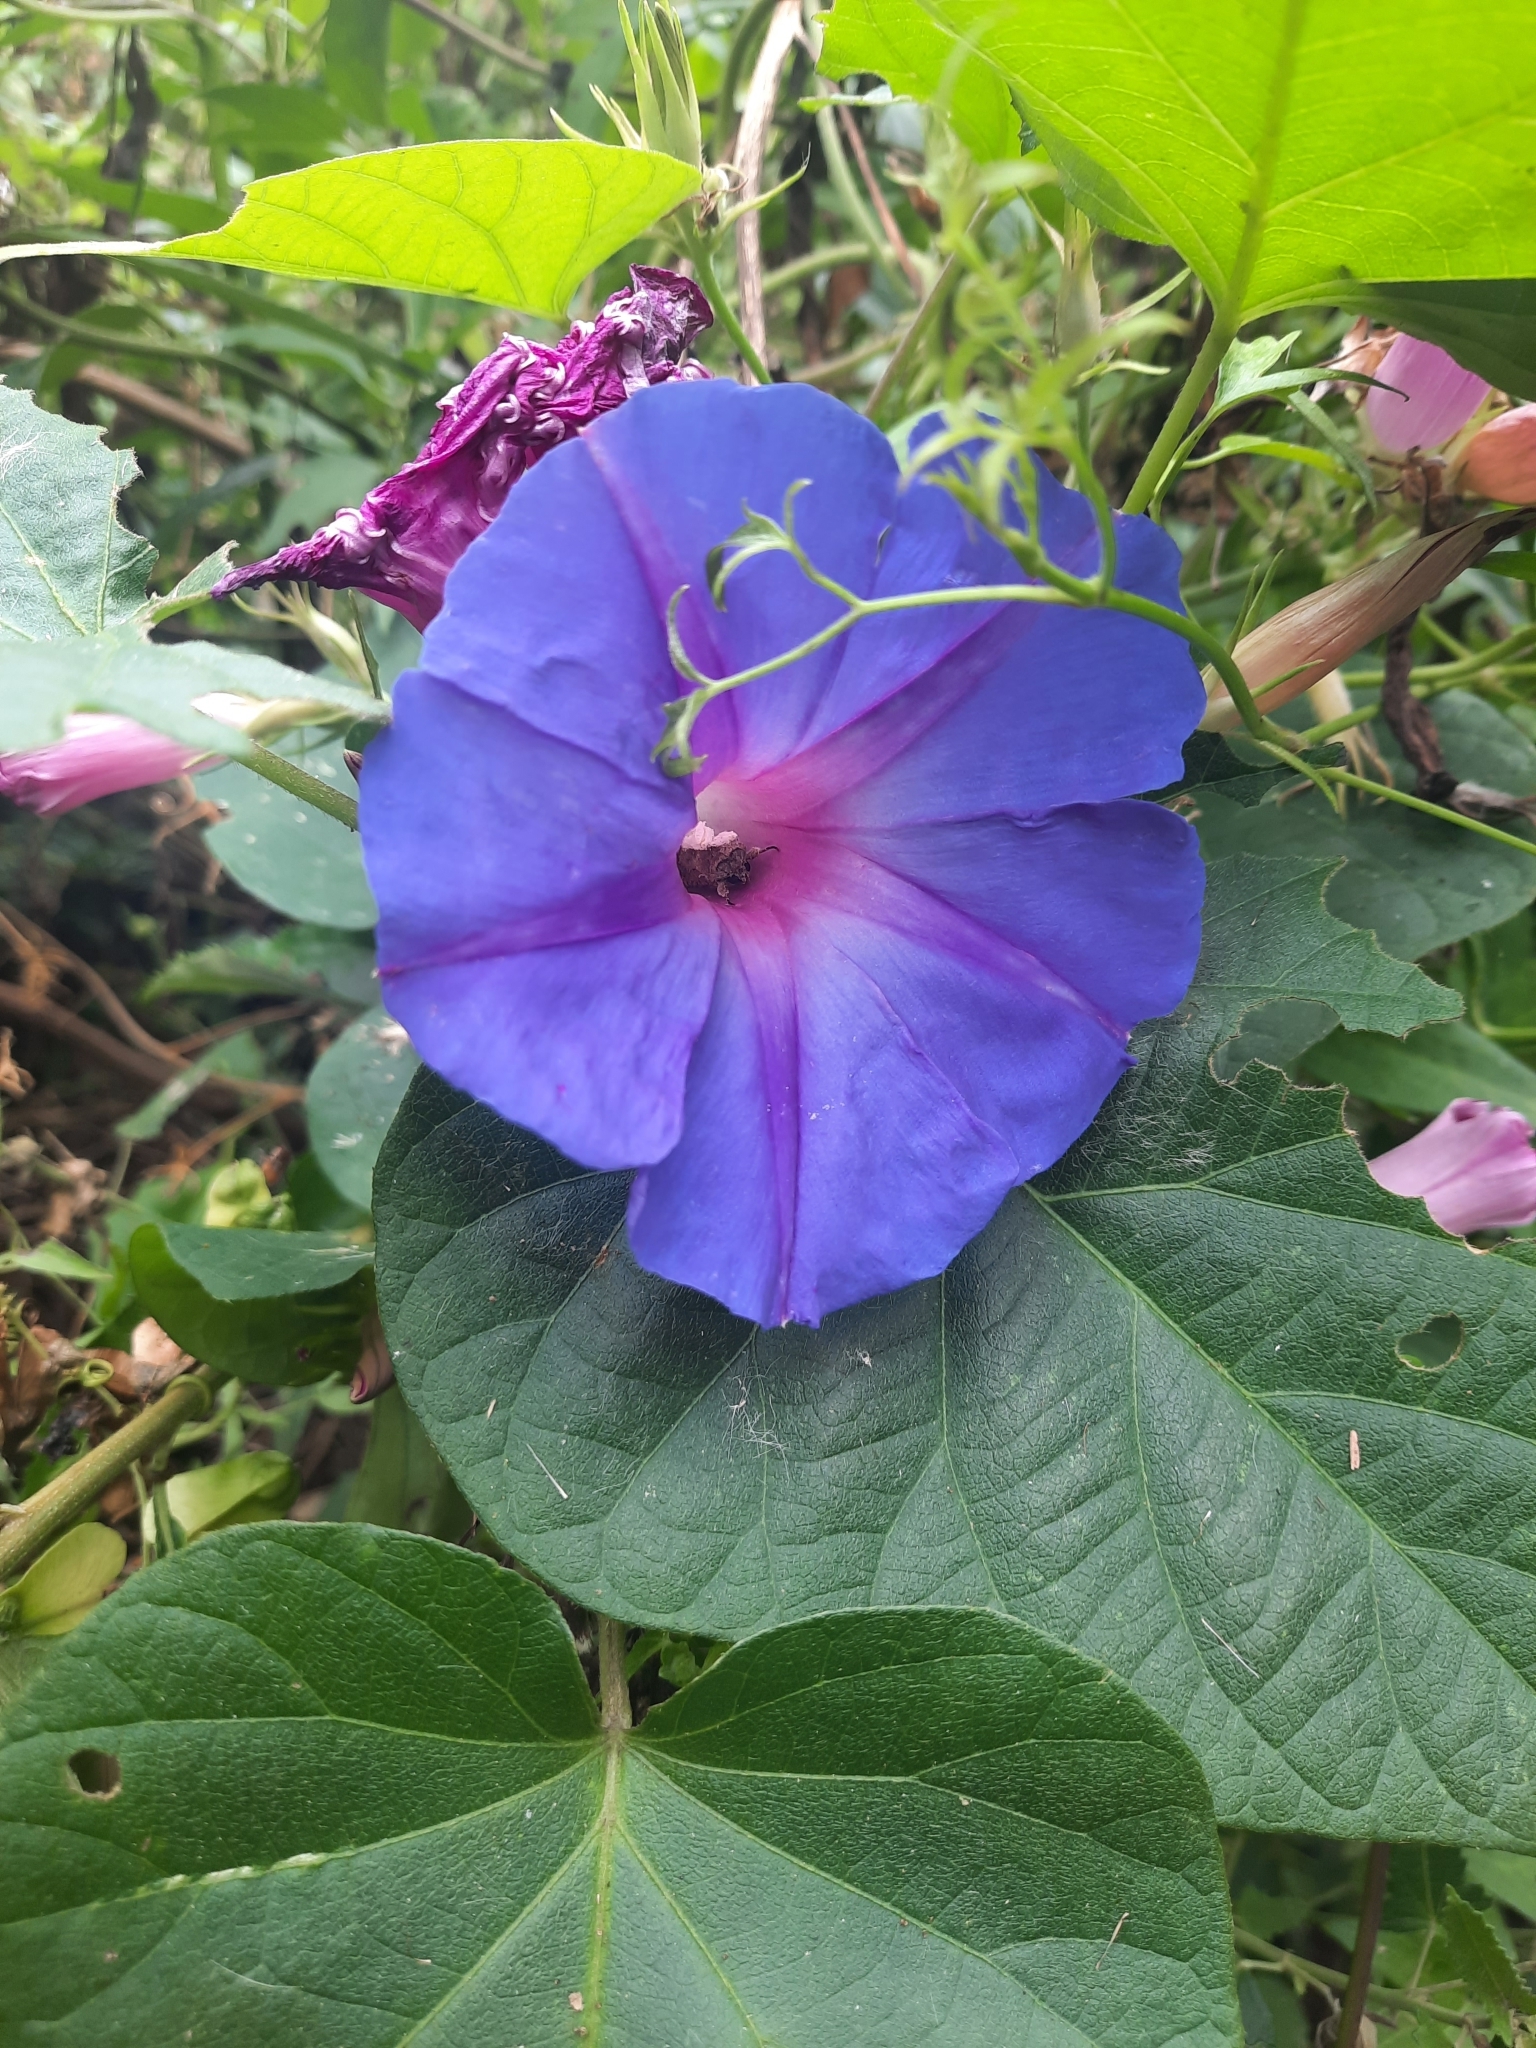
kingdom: Plantae
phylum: Tracheophyta
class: Magnoliopsida
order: Solanales
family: Convolvulaceae
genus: Ipomoea
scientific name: Ipomoea indica
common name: Blue dawnflower
